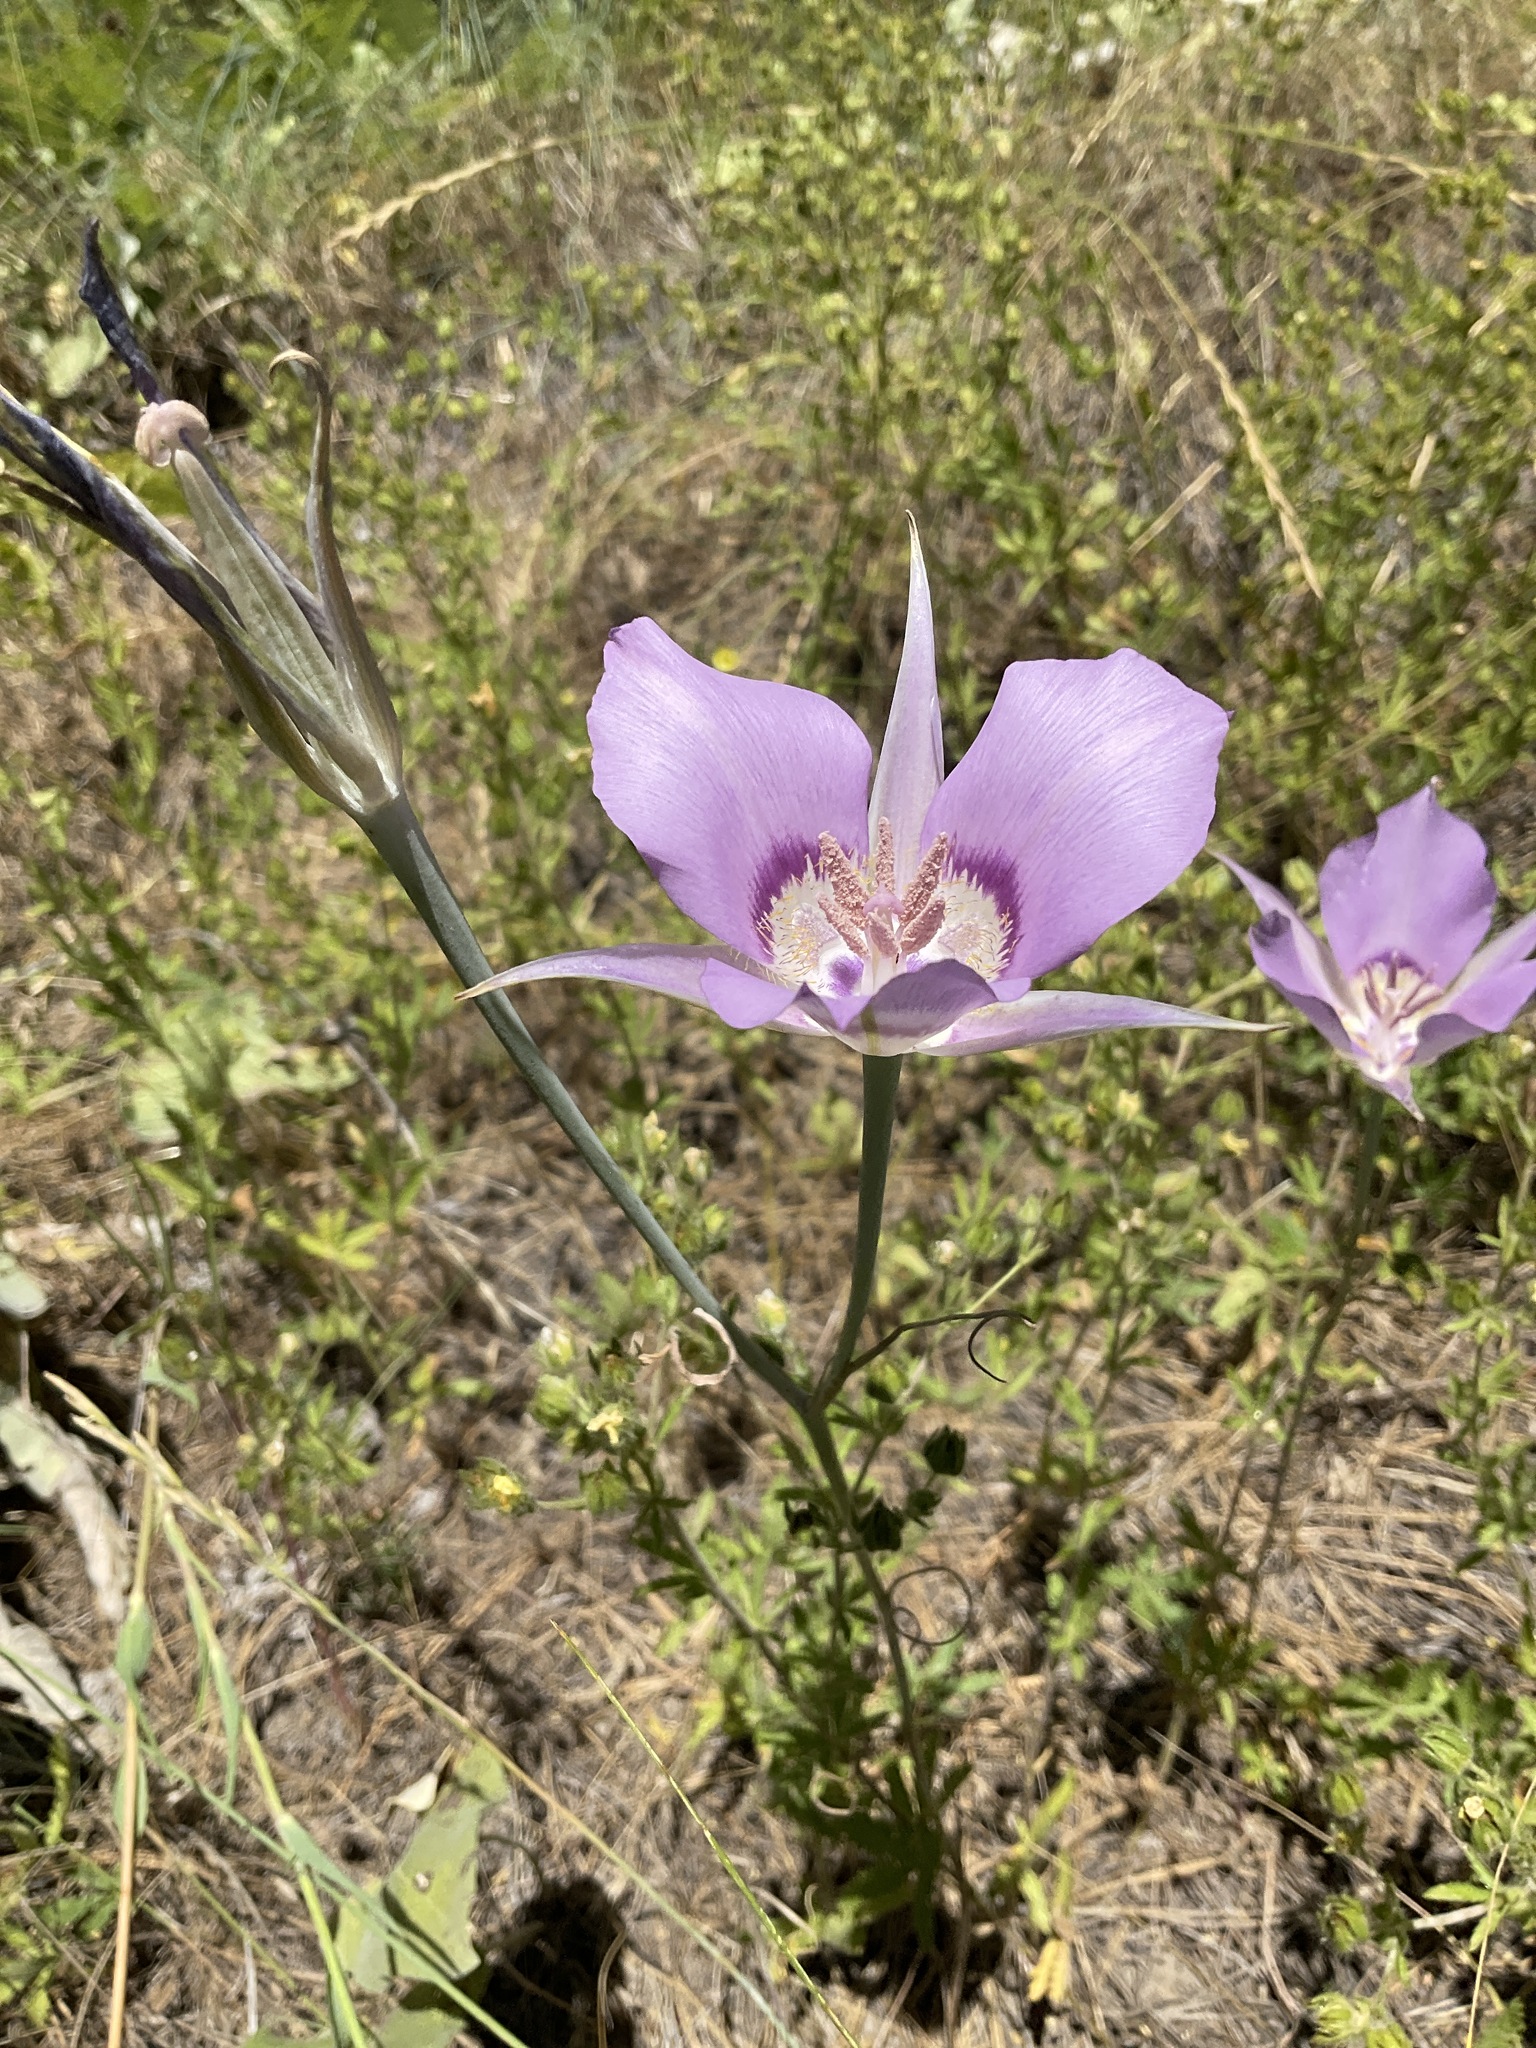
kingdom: Plantae
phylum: Tracheophyta
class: Liliopsida
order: Liliales
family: Liliaceae
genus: Calochortus
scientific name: Calochortus macrocarpus
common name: Green-band mariposa lily
